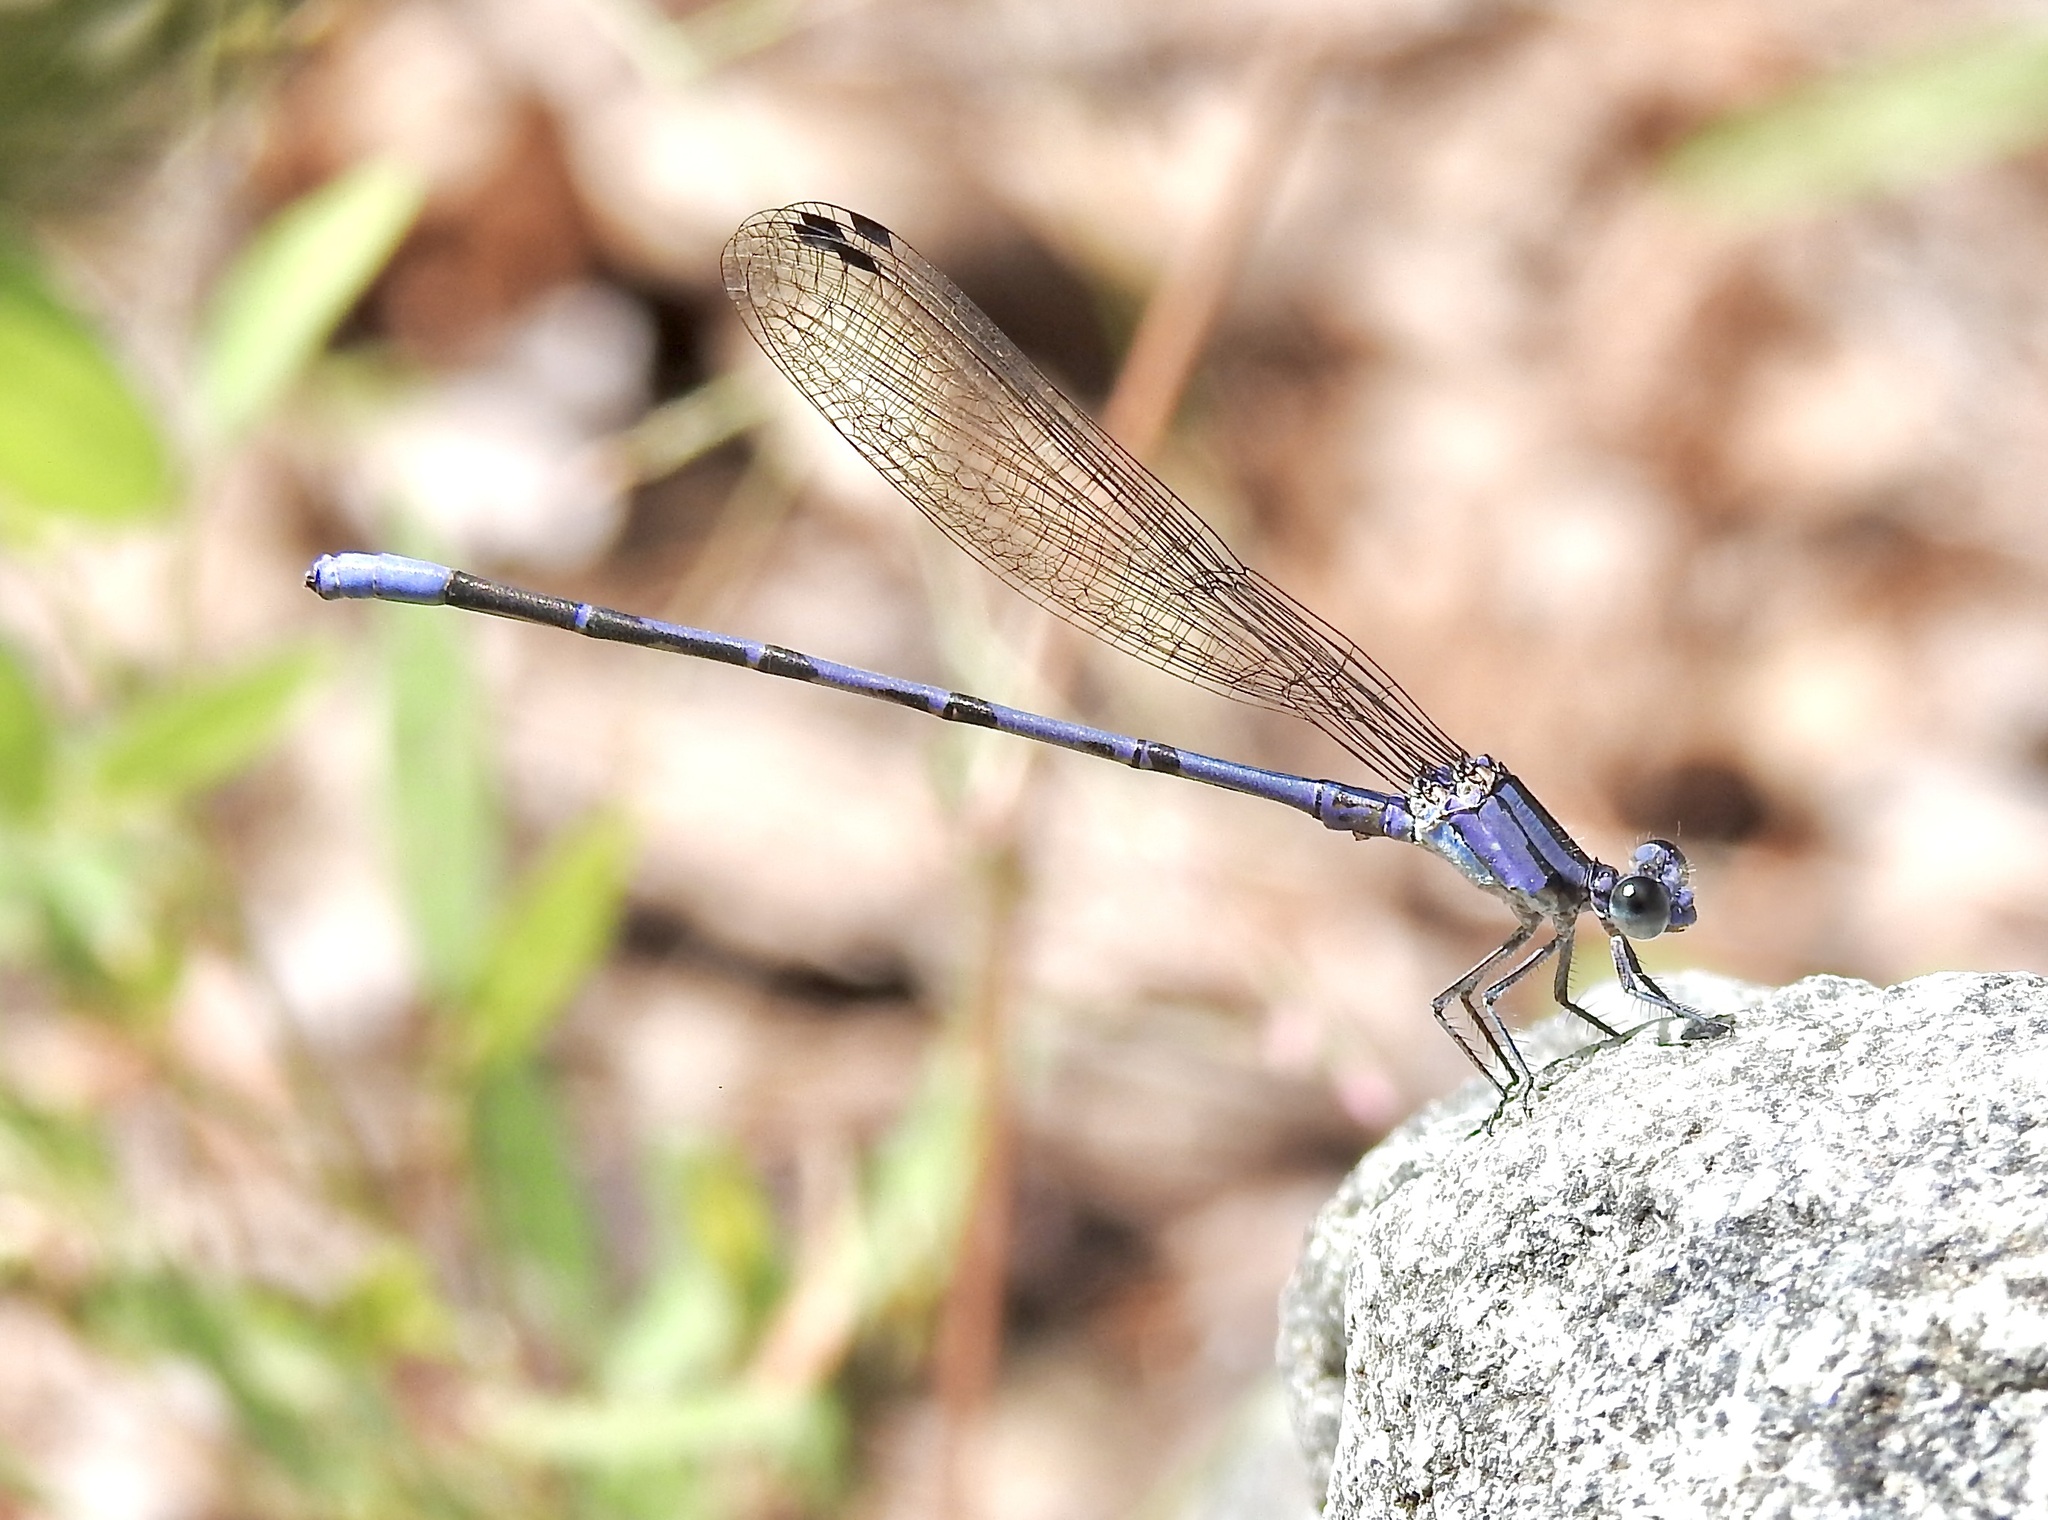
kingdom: Animalia
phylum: Arthropoda
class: Insecta
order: Odonata
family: Coenagrionidae
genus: Argia
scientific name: Argia funebris
